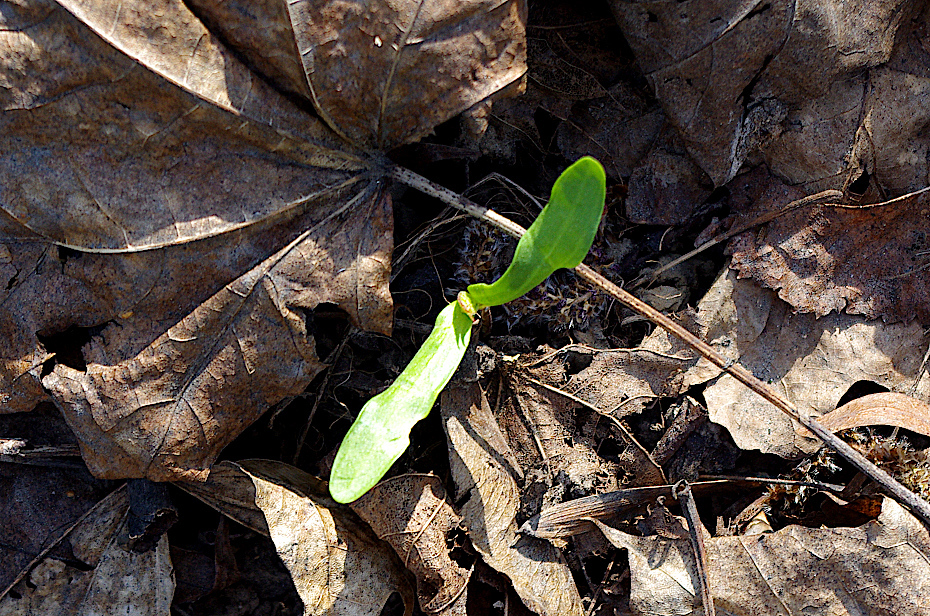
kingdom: Plantae
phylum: Tracheophyta
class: Magnoliopsida
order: Sapindales
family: Sapindaceae
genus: Acer
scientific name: Acer platanoides
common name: Norway maple
